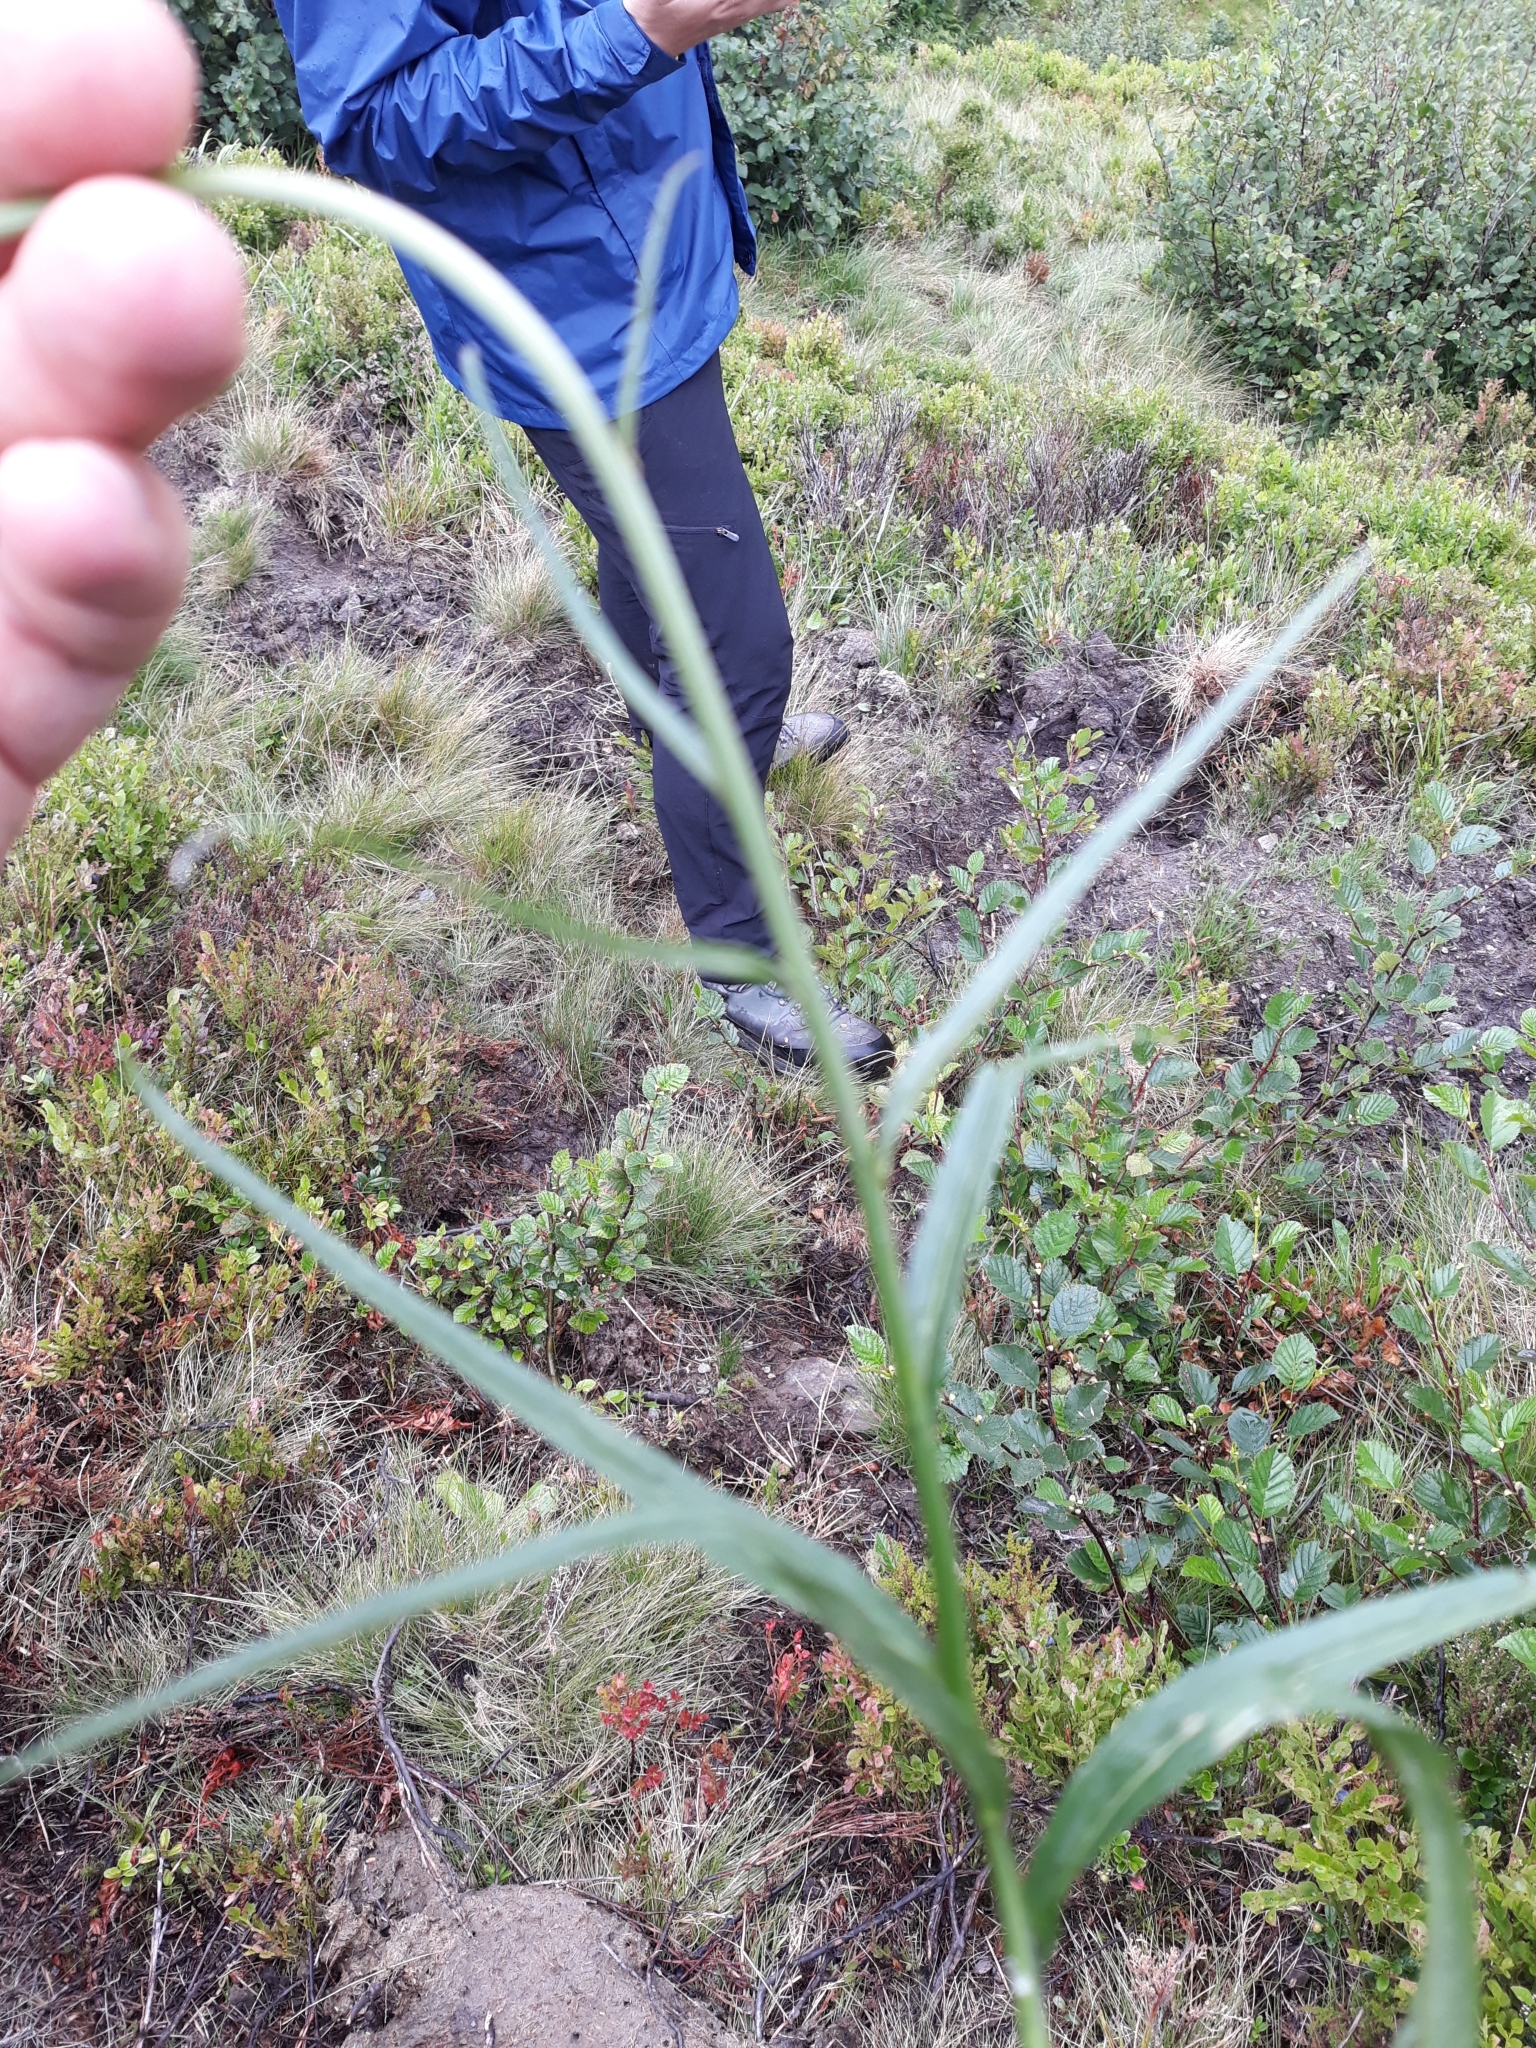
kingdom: Plantae
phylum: Tracheophyta
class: Magnoliopsida
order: Asterales
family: Campanulaceae
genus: Phyteuma
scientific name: Phyteuma persicifolium
